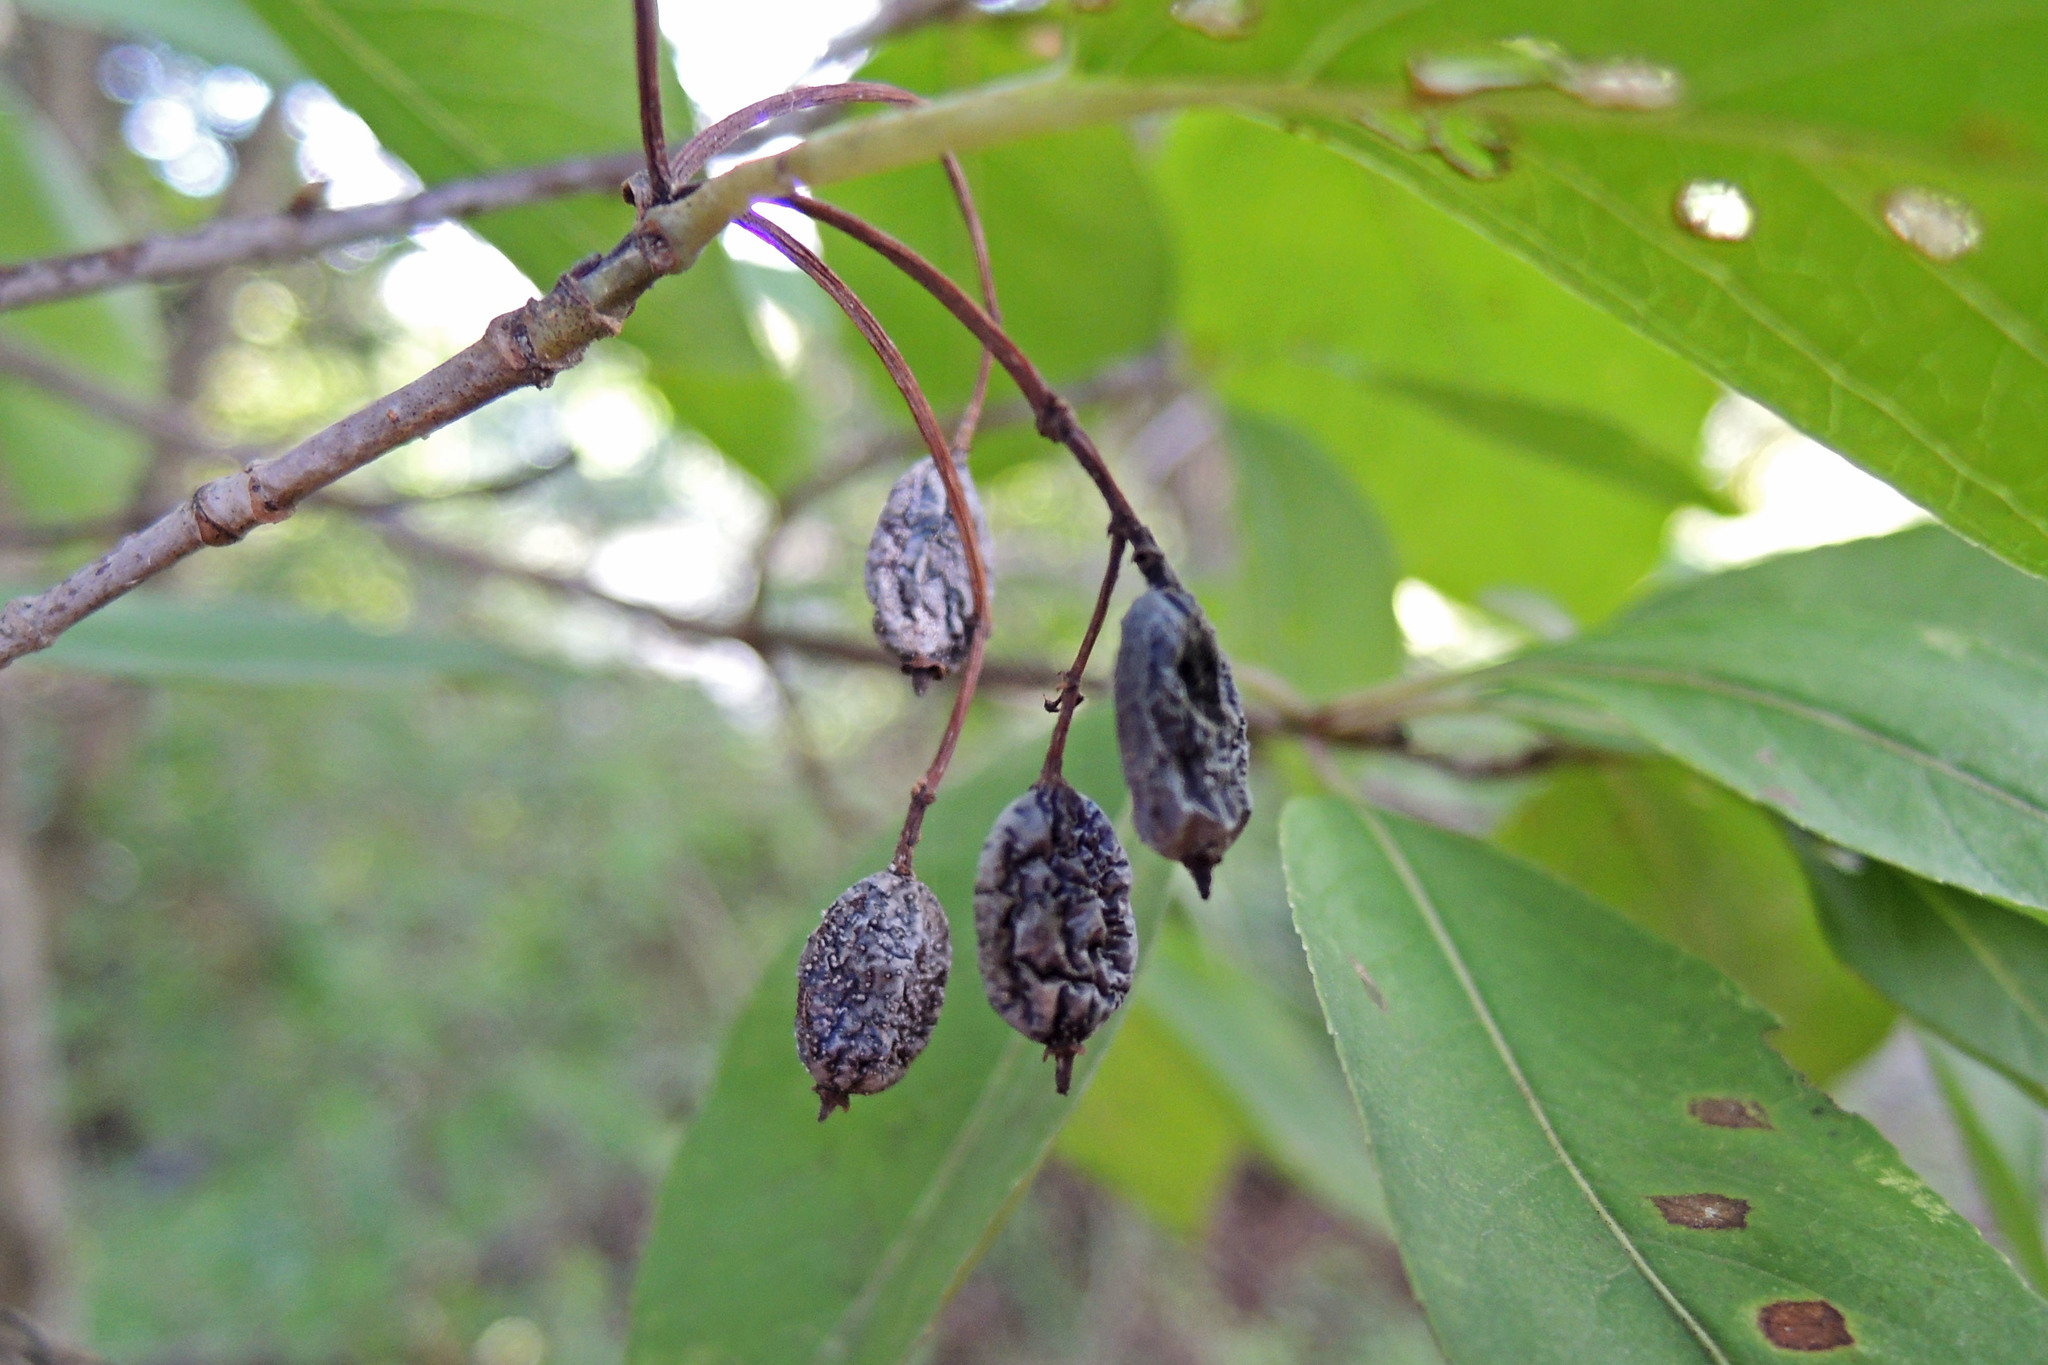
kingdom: Plantae
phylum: Tracheophyta
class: Magnoliopsida
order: Dipsacales
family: Viburnaceae
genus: Viburnum
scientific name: Viburnum prunifolium
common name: Black haw
